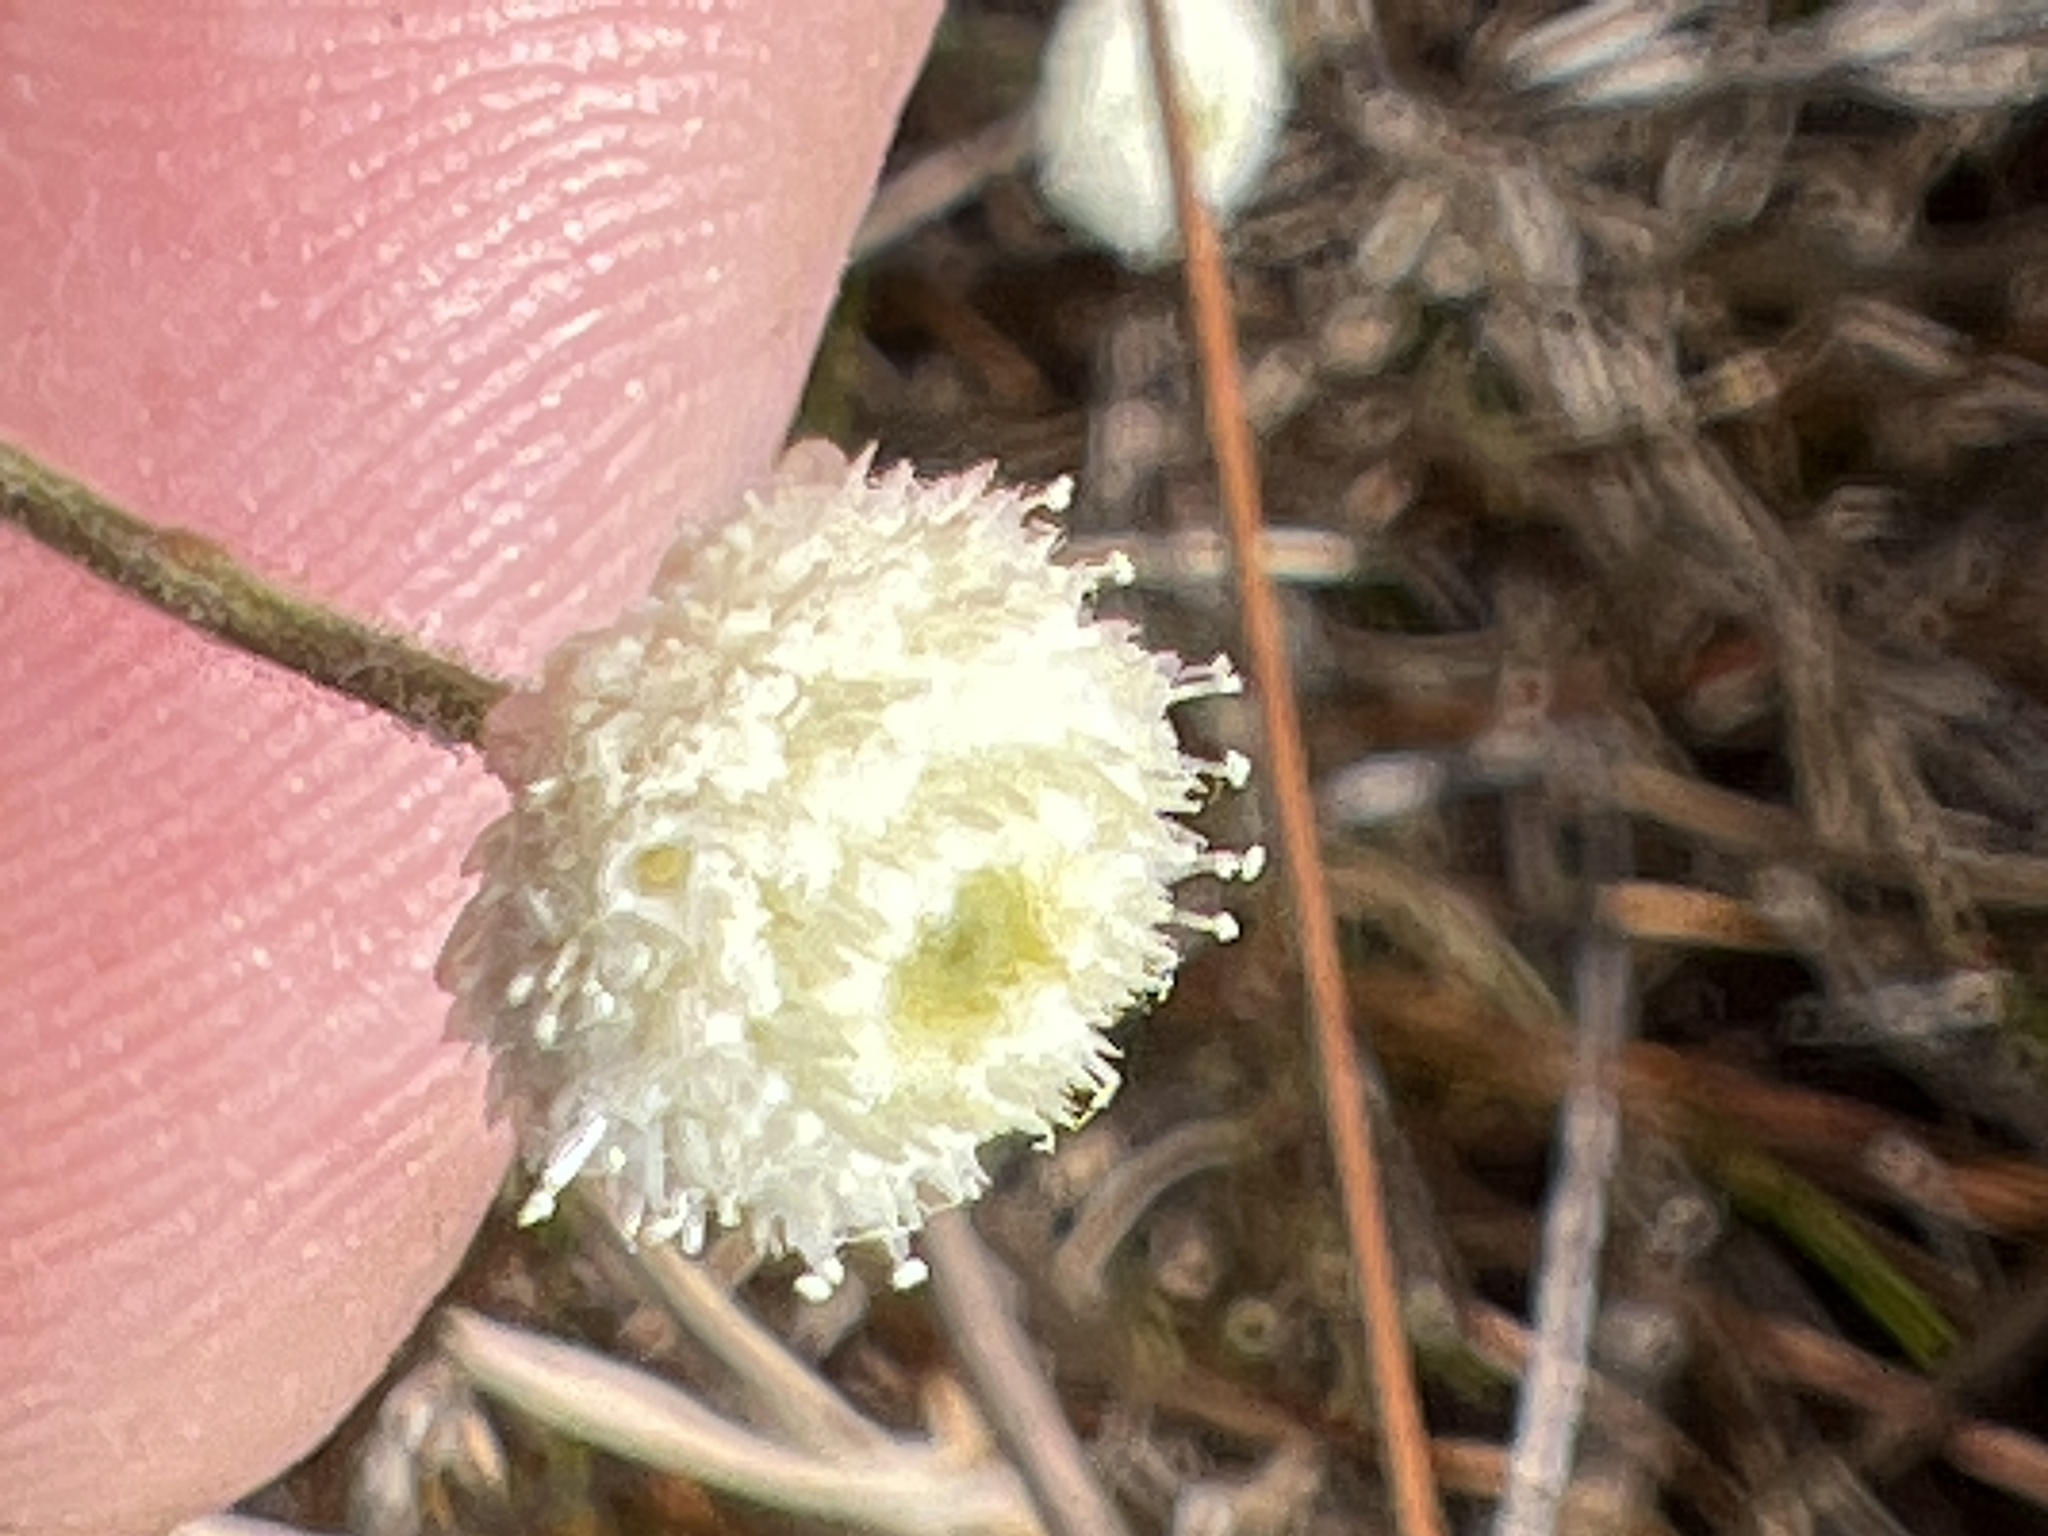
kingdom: Plantae
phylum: Tracheophyta
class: Liliopsida
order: Poales
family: Eriocaulaceae
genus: Syngonanthus
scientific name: Syngonanthus flavidulus
